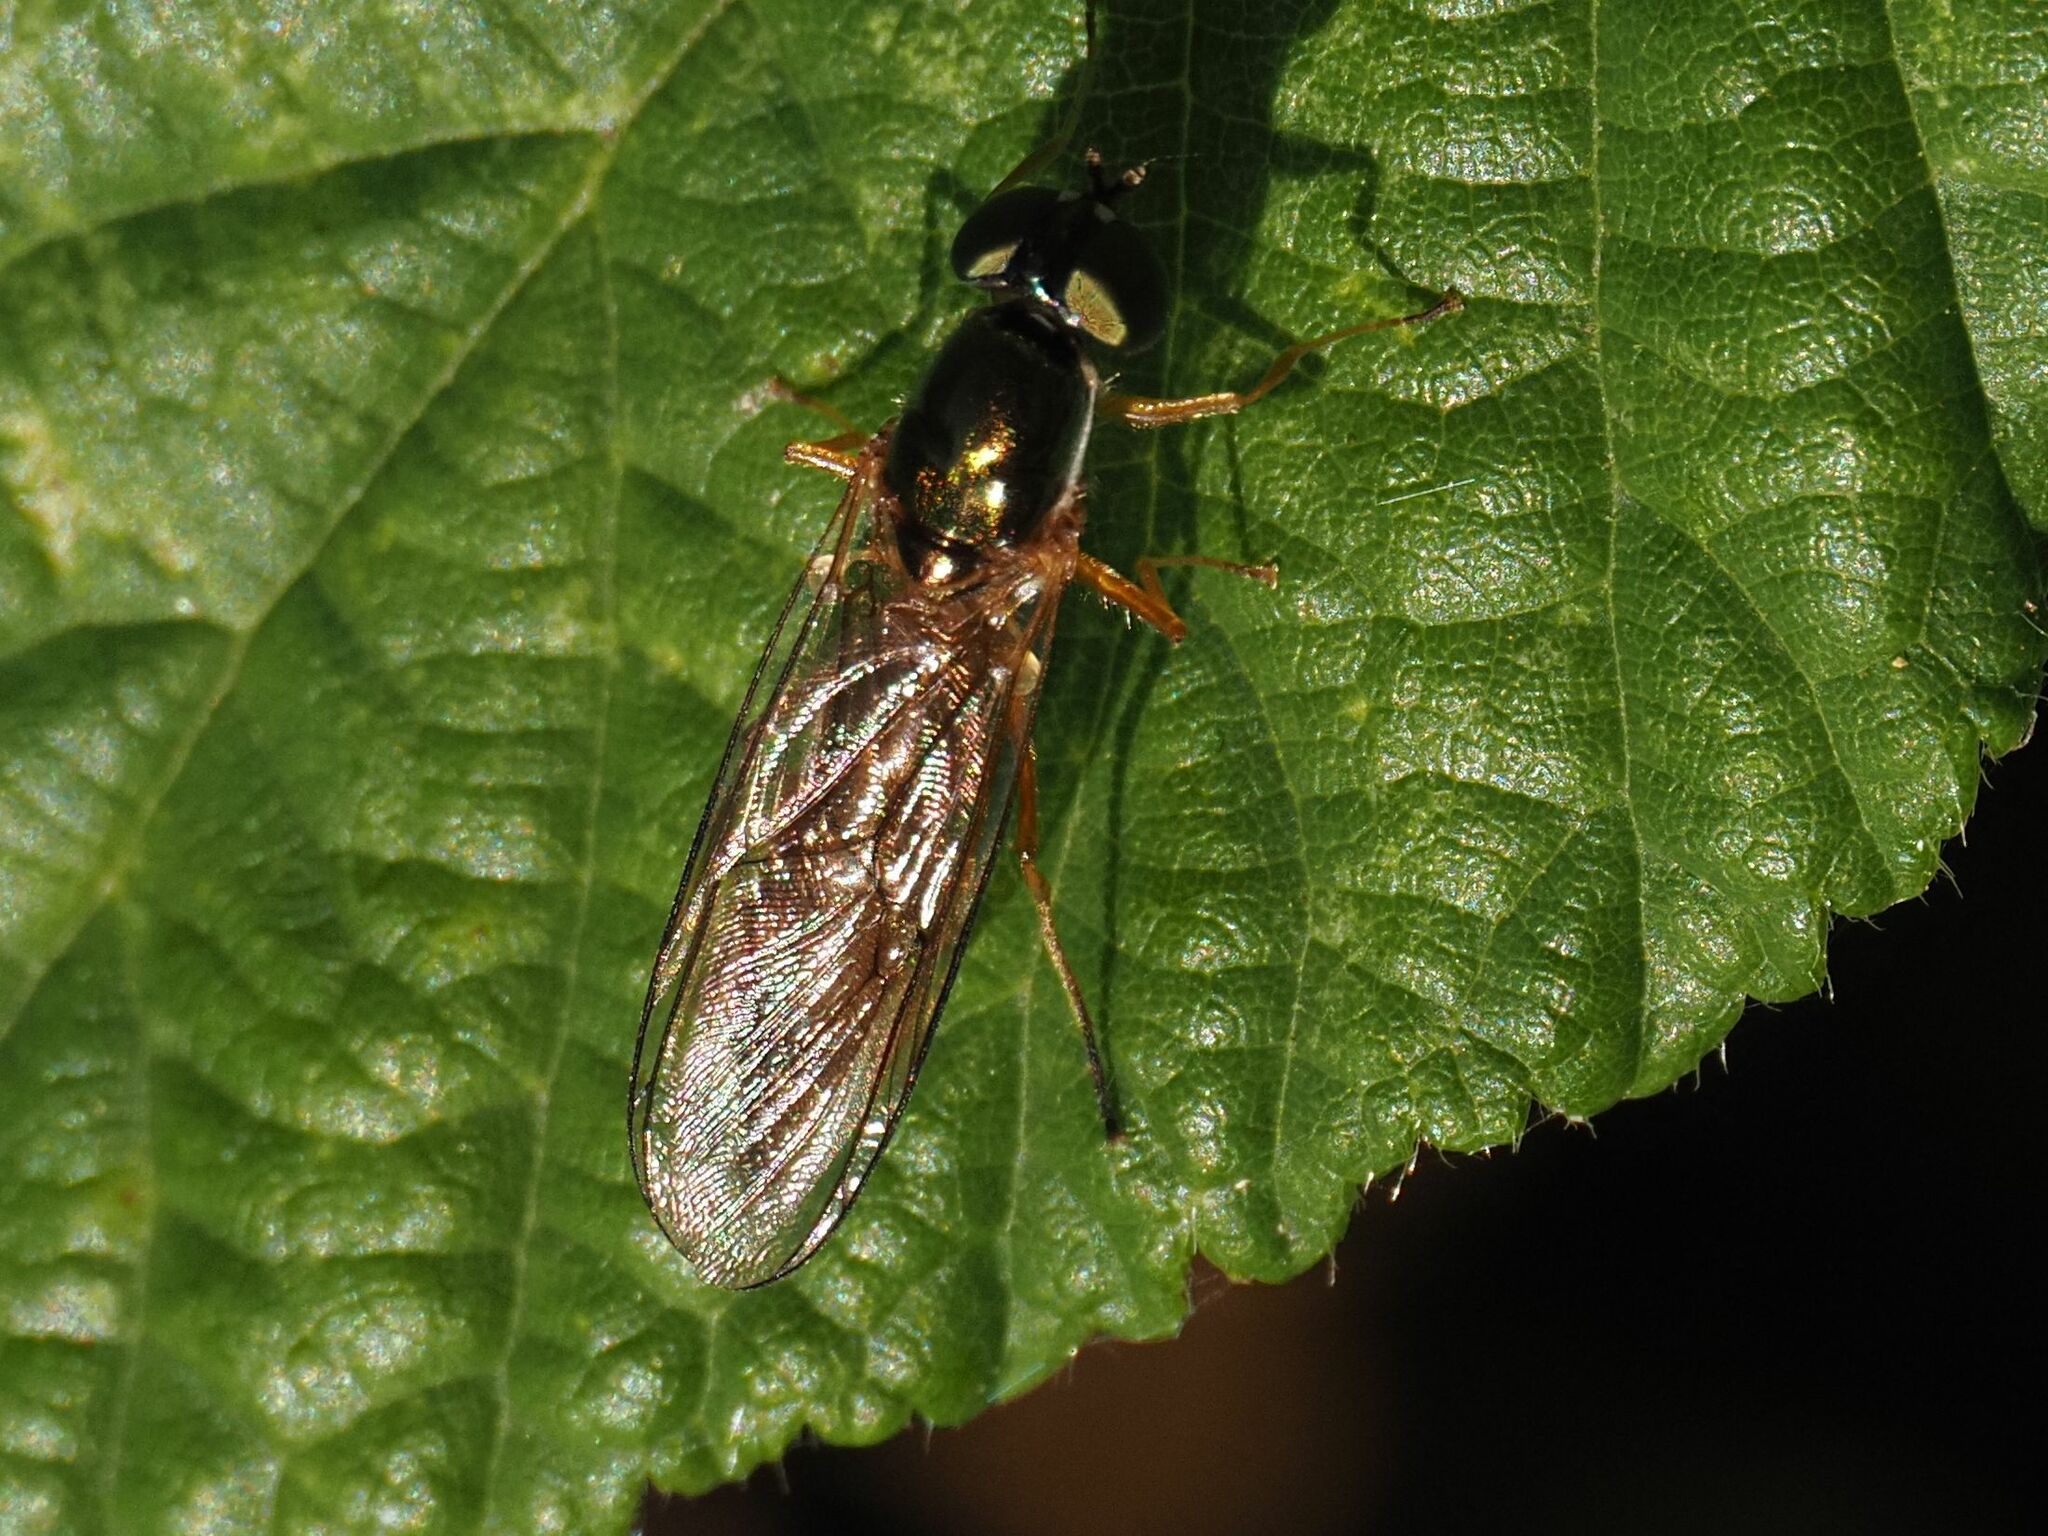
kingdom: Animalia
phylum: Arthropoda
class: Insecta
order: Diptera
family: Stratiomyidae
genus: Sargus
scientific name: Sargus bipunctatus
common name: Twin-spot centurion
